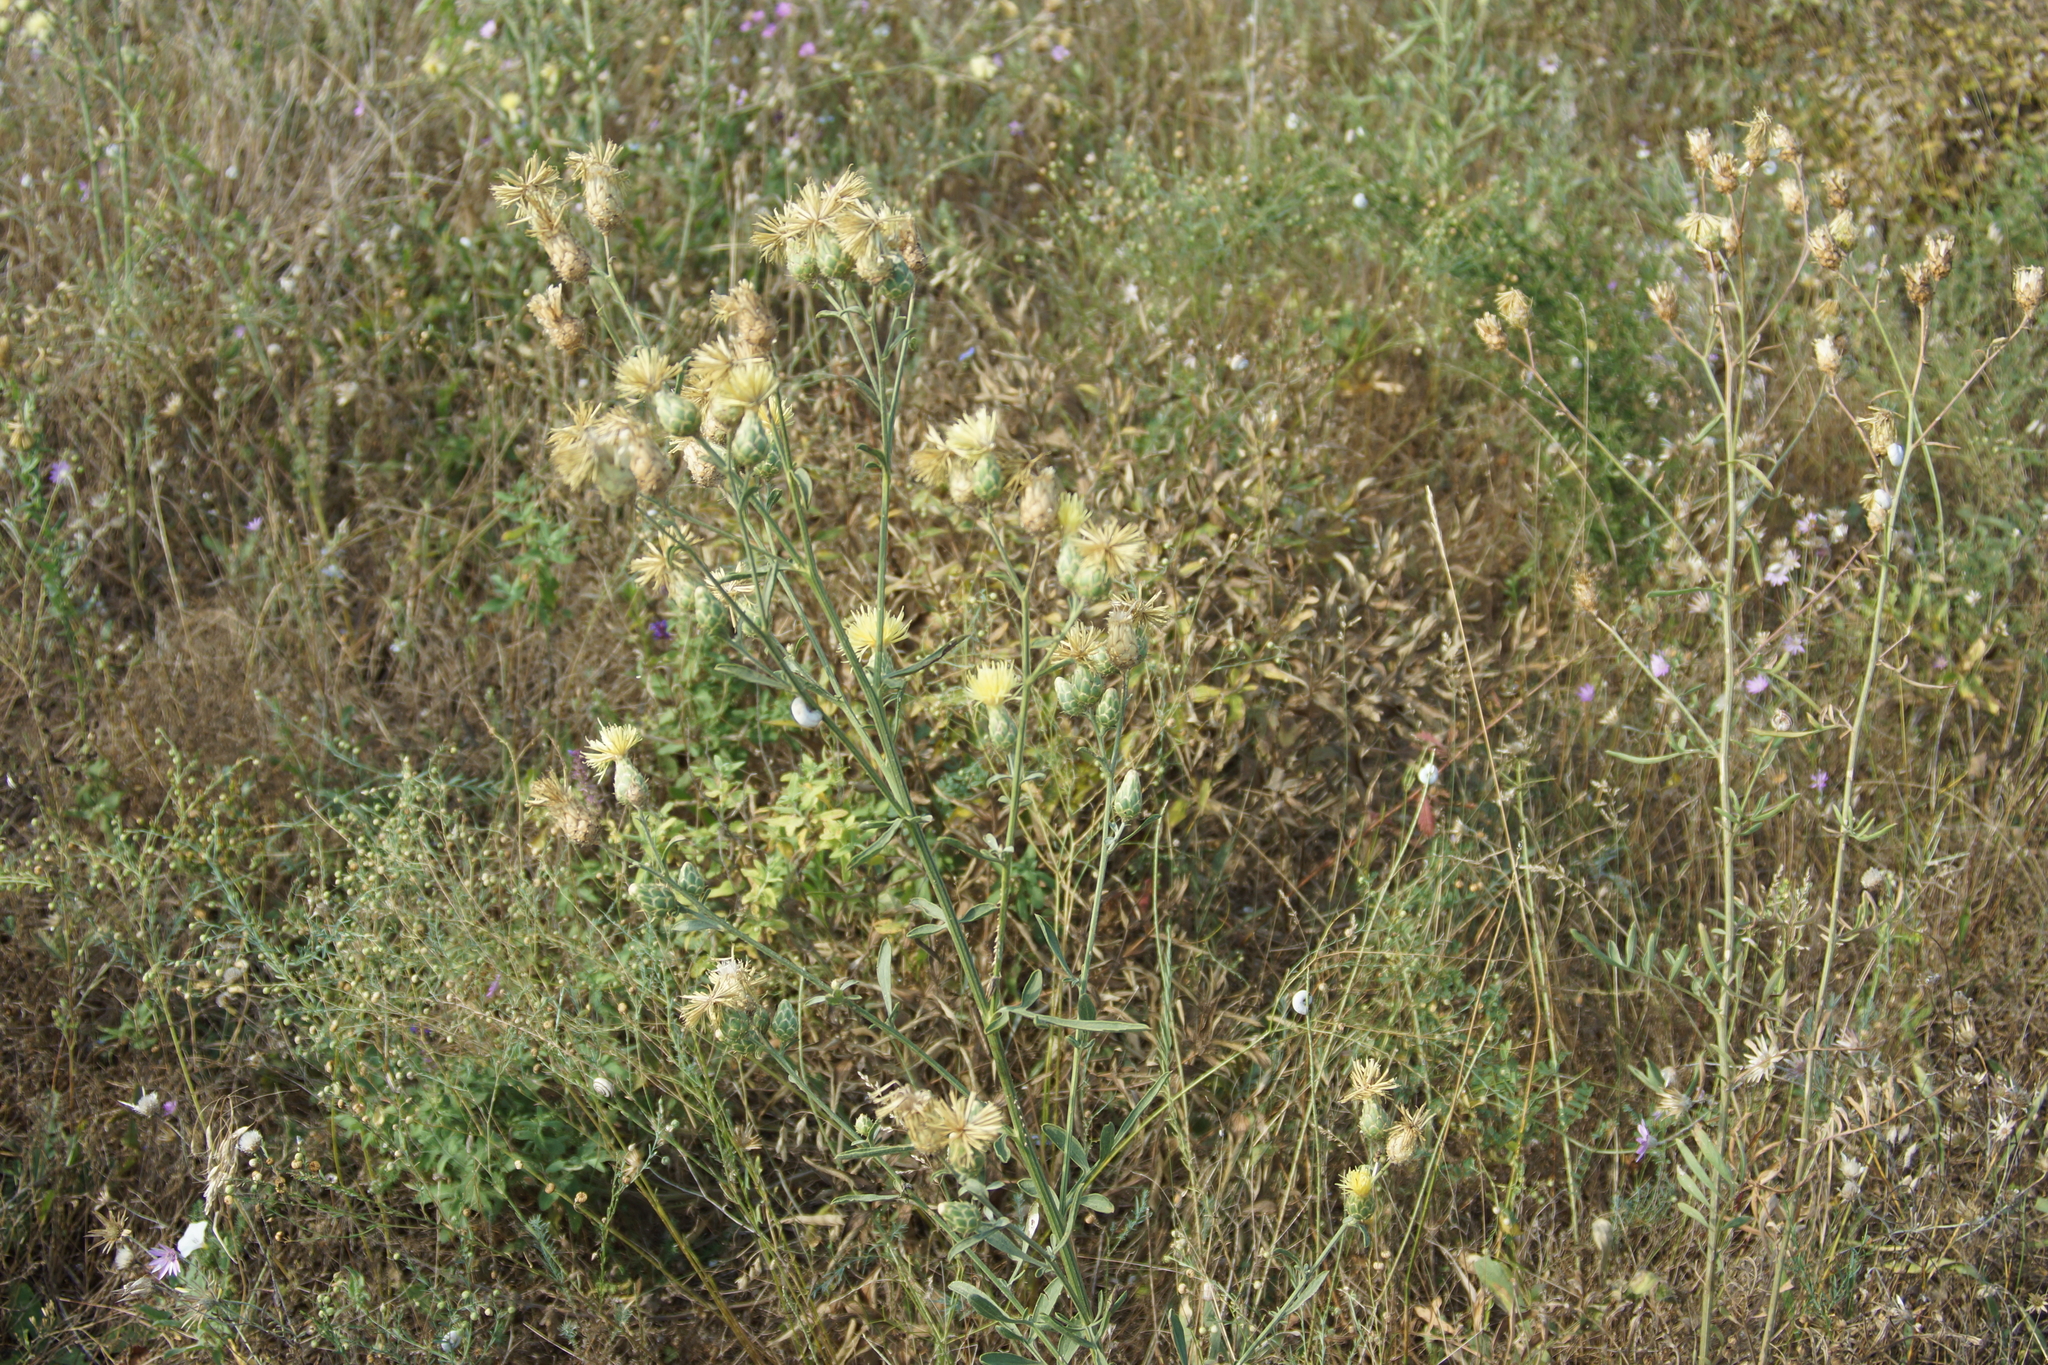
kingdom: Plantae
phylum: Tracheophyta
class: Magnoliopsida
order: Asterales
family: Asteraceae
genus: Centaurea
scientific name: Centaurea salonitana
